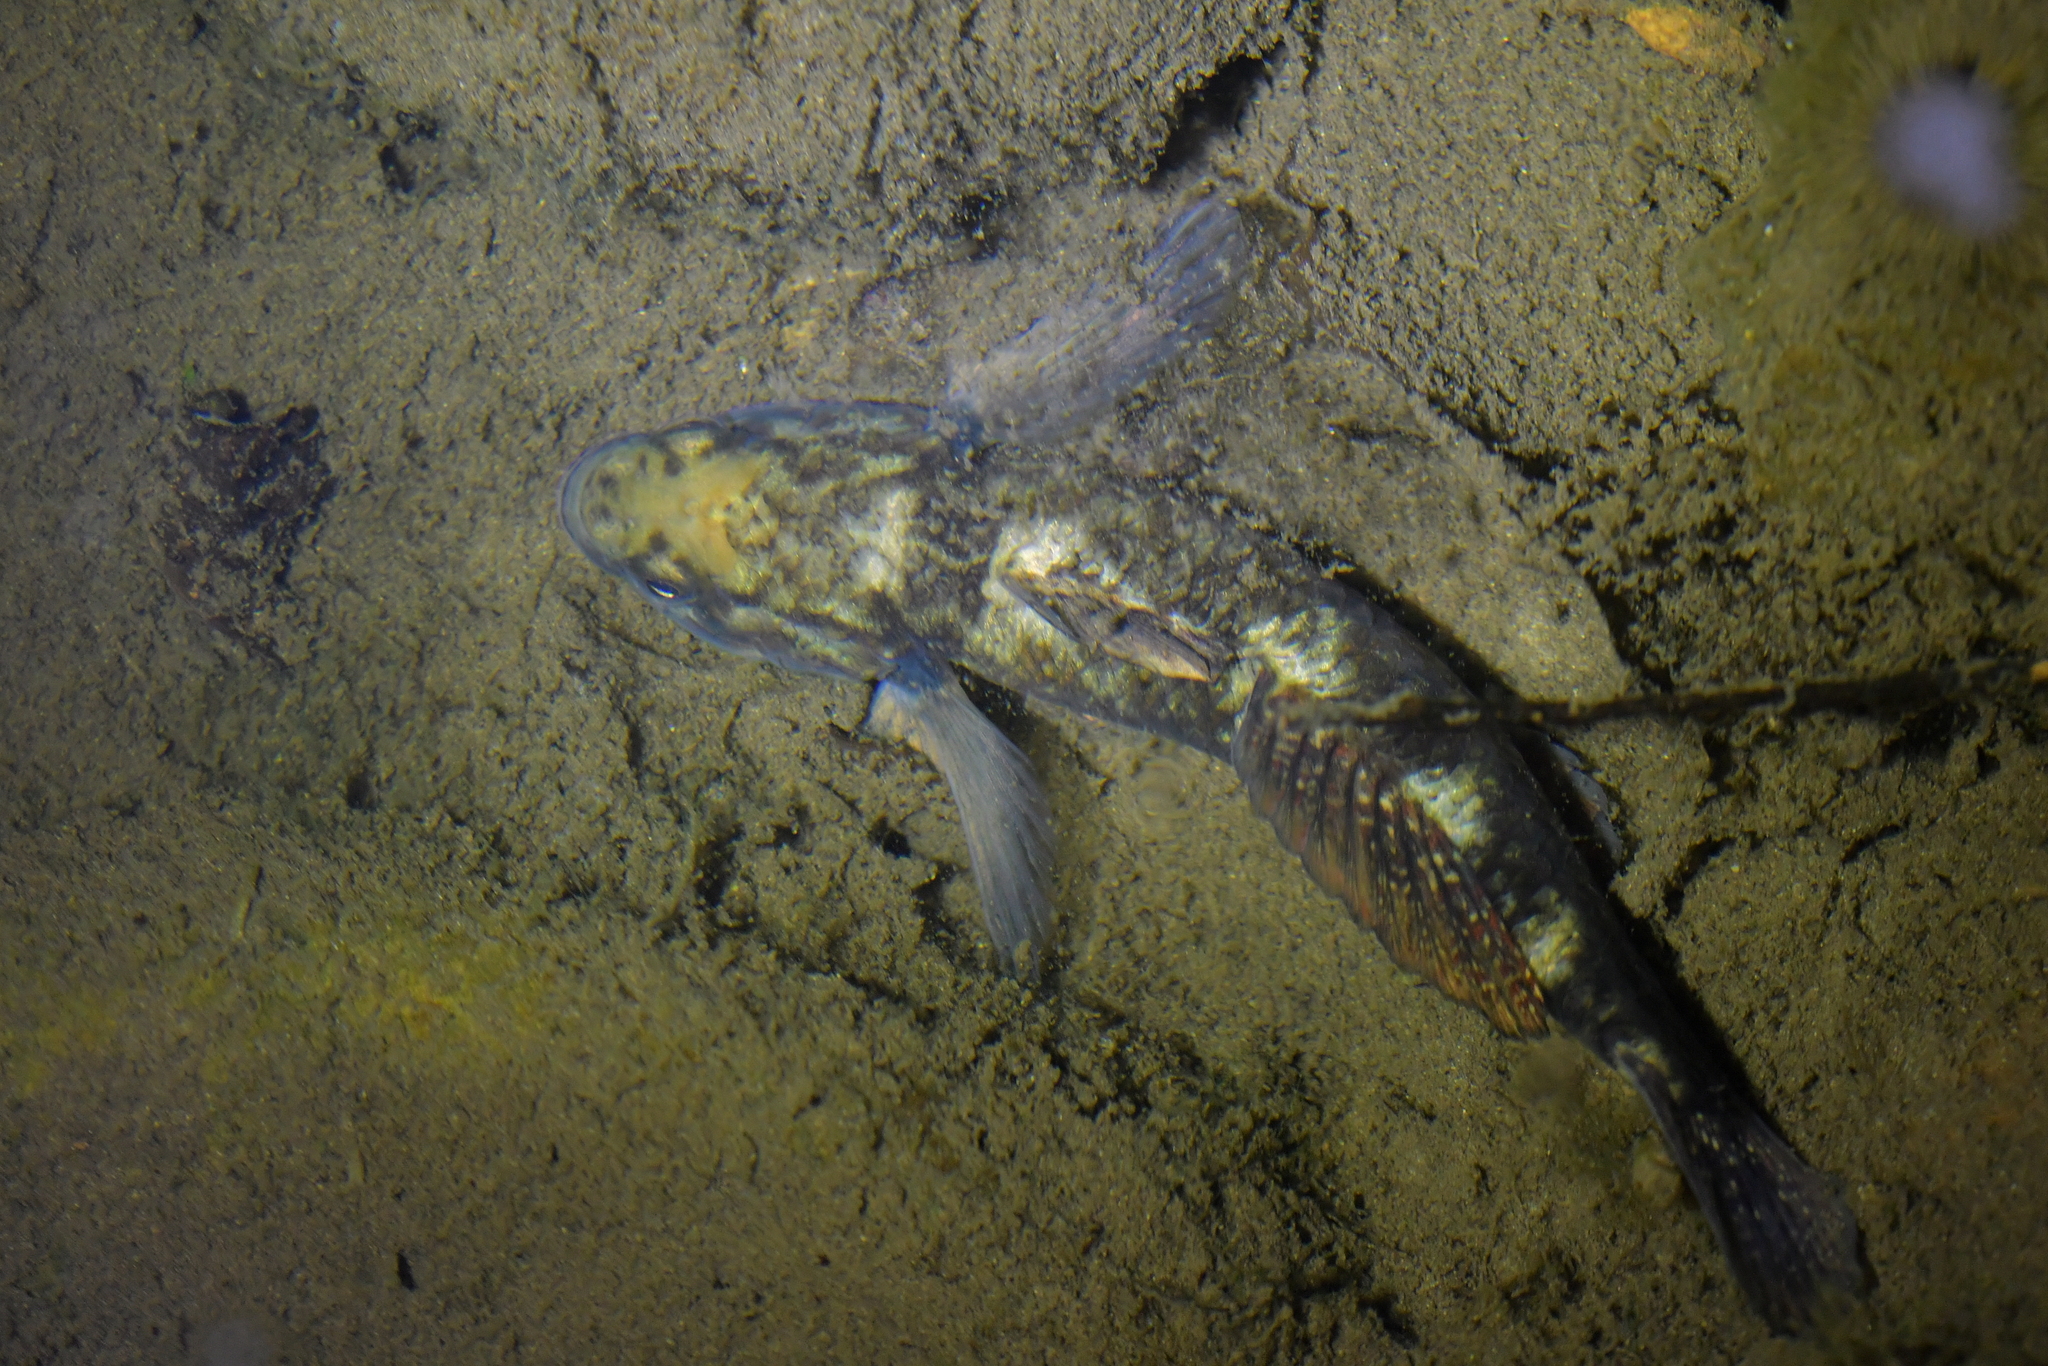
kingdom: Animalia
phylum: Chordata
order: Perciformes
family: Eleotridae
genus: Gobiomorphus
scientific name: Gobiomorphus huttoni
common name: Redfin bully
